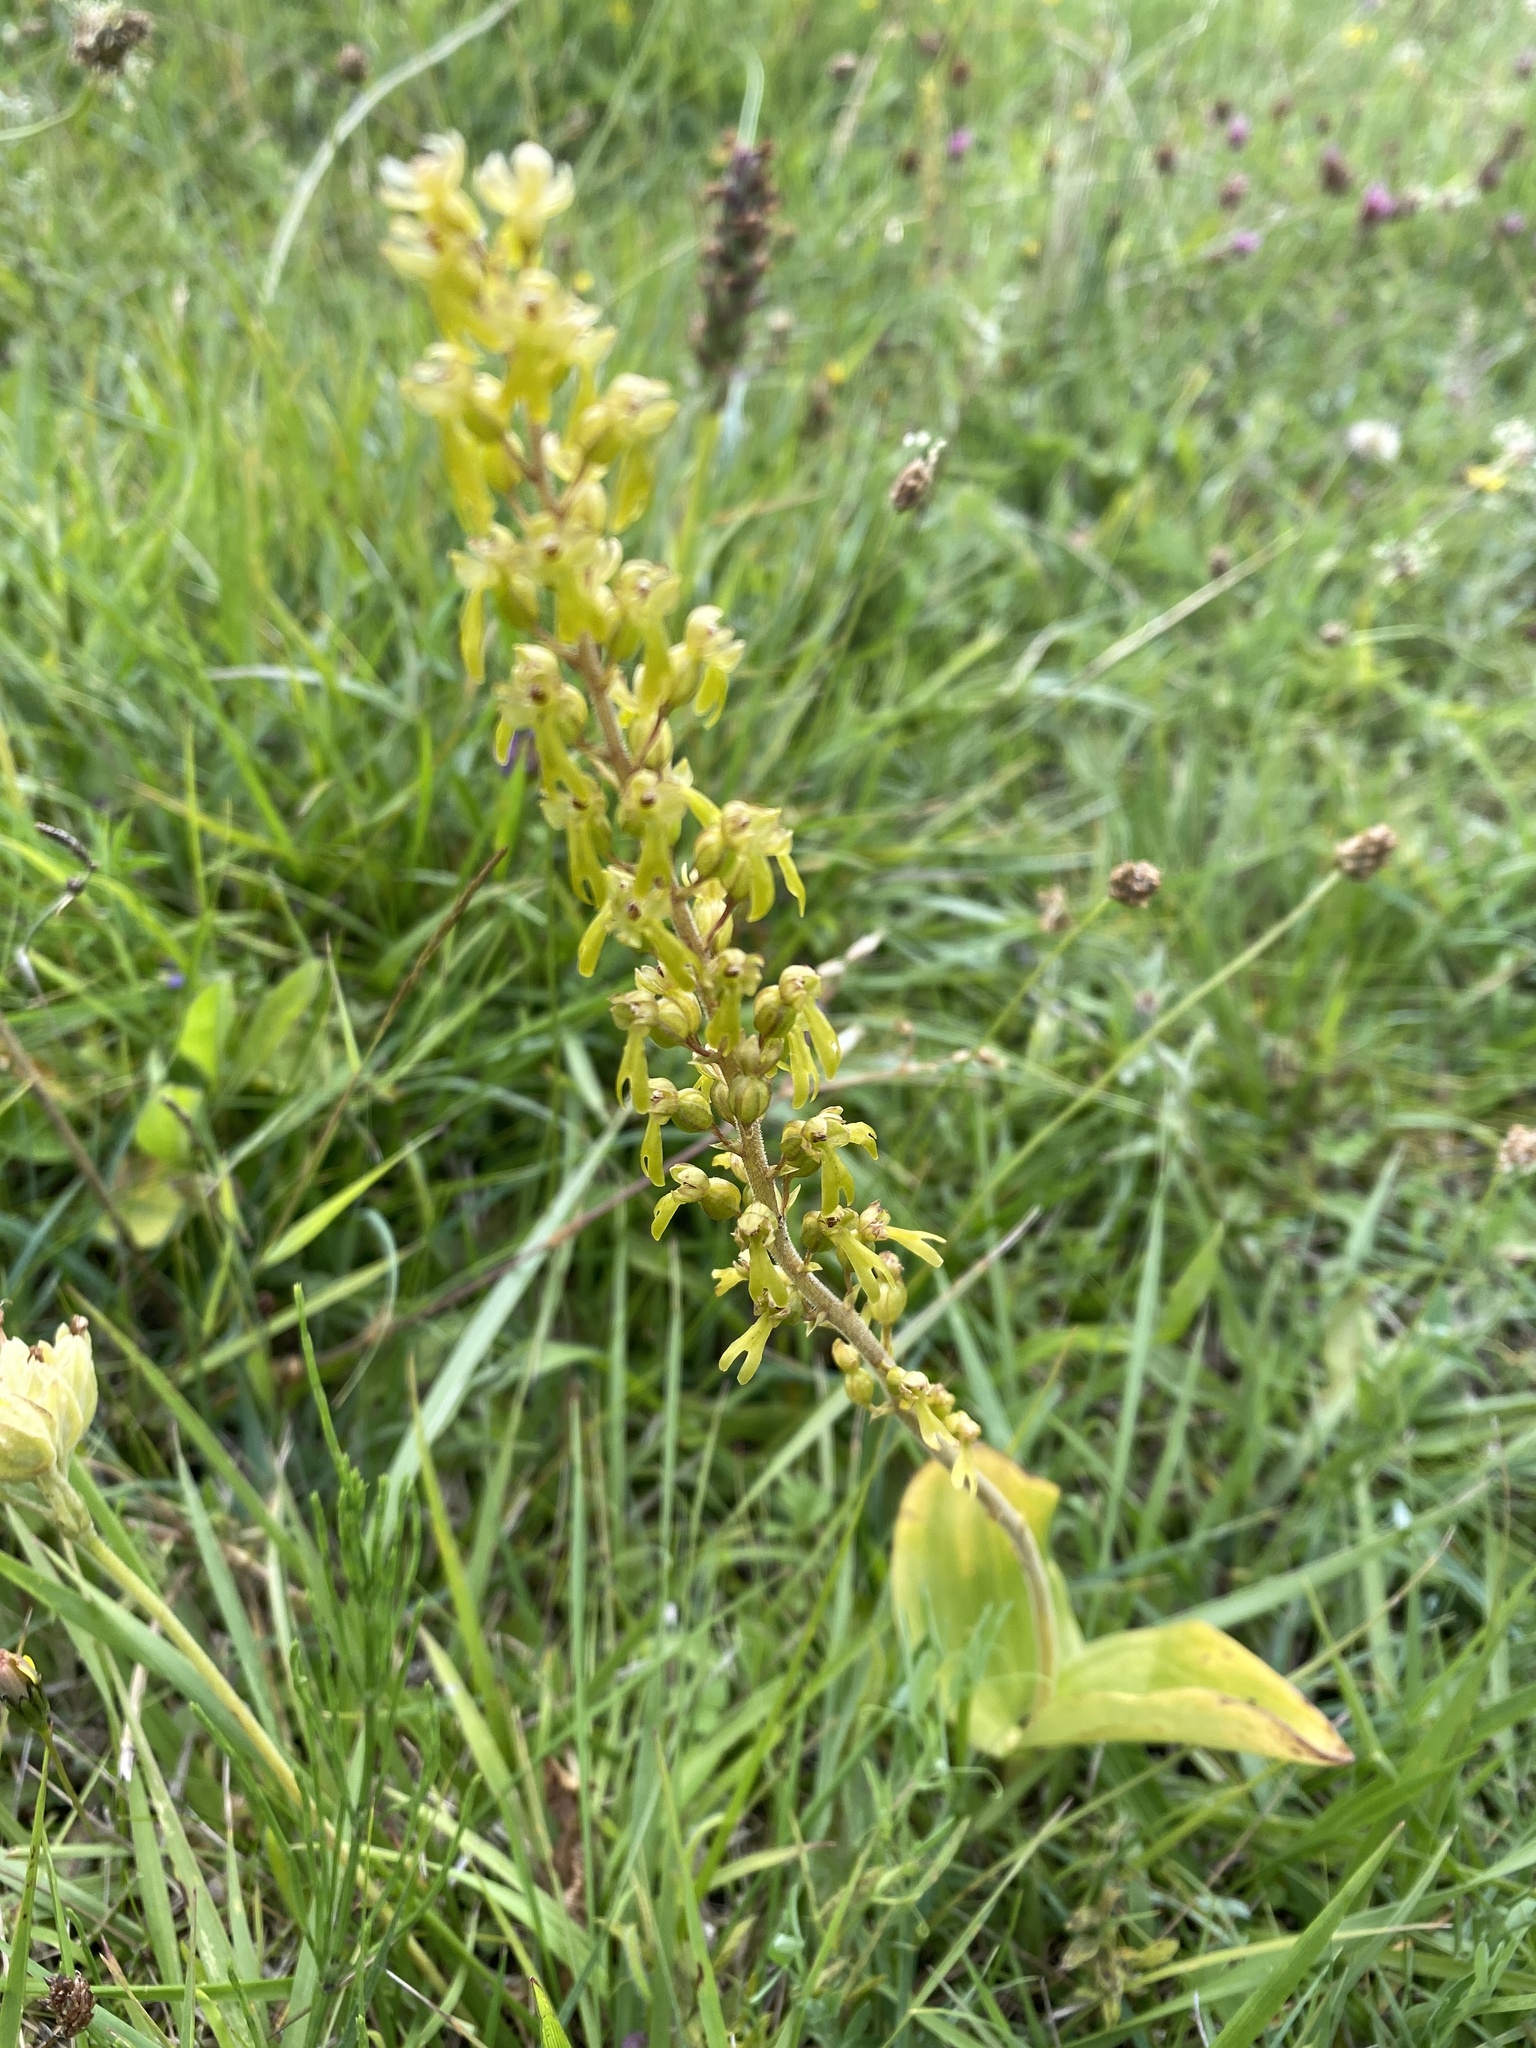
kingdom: Plantae
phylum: Tracheophyta
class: Liliopsida
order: Asparagales
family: Orchidaceae
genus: Neottia
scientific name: Neottia ovata
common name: Common twayblade
